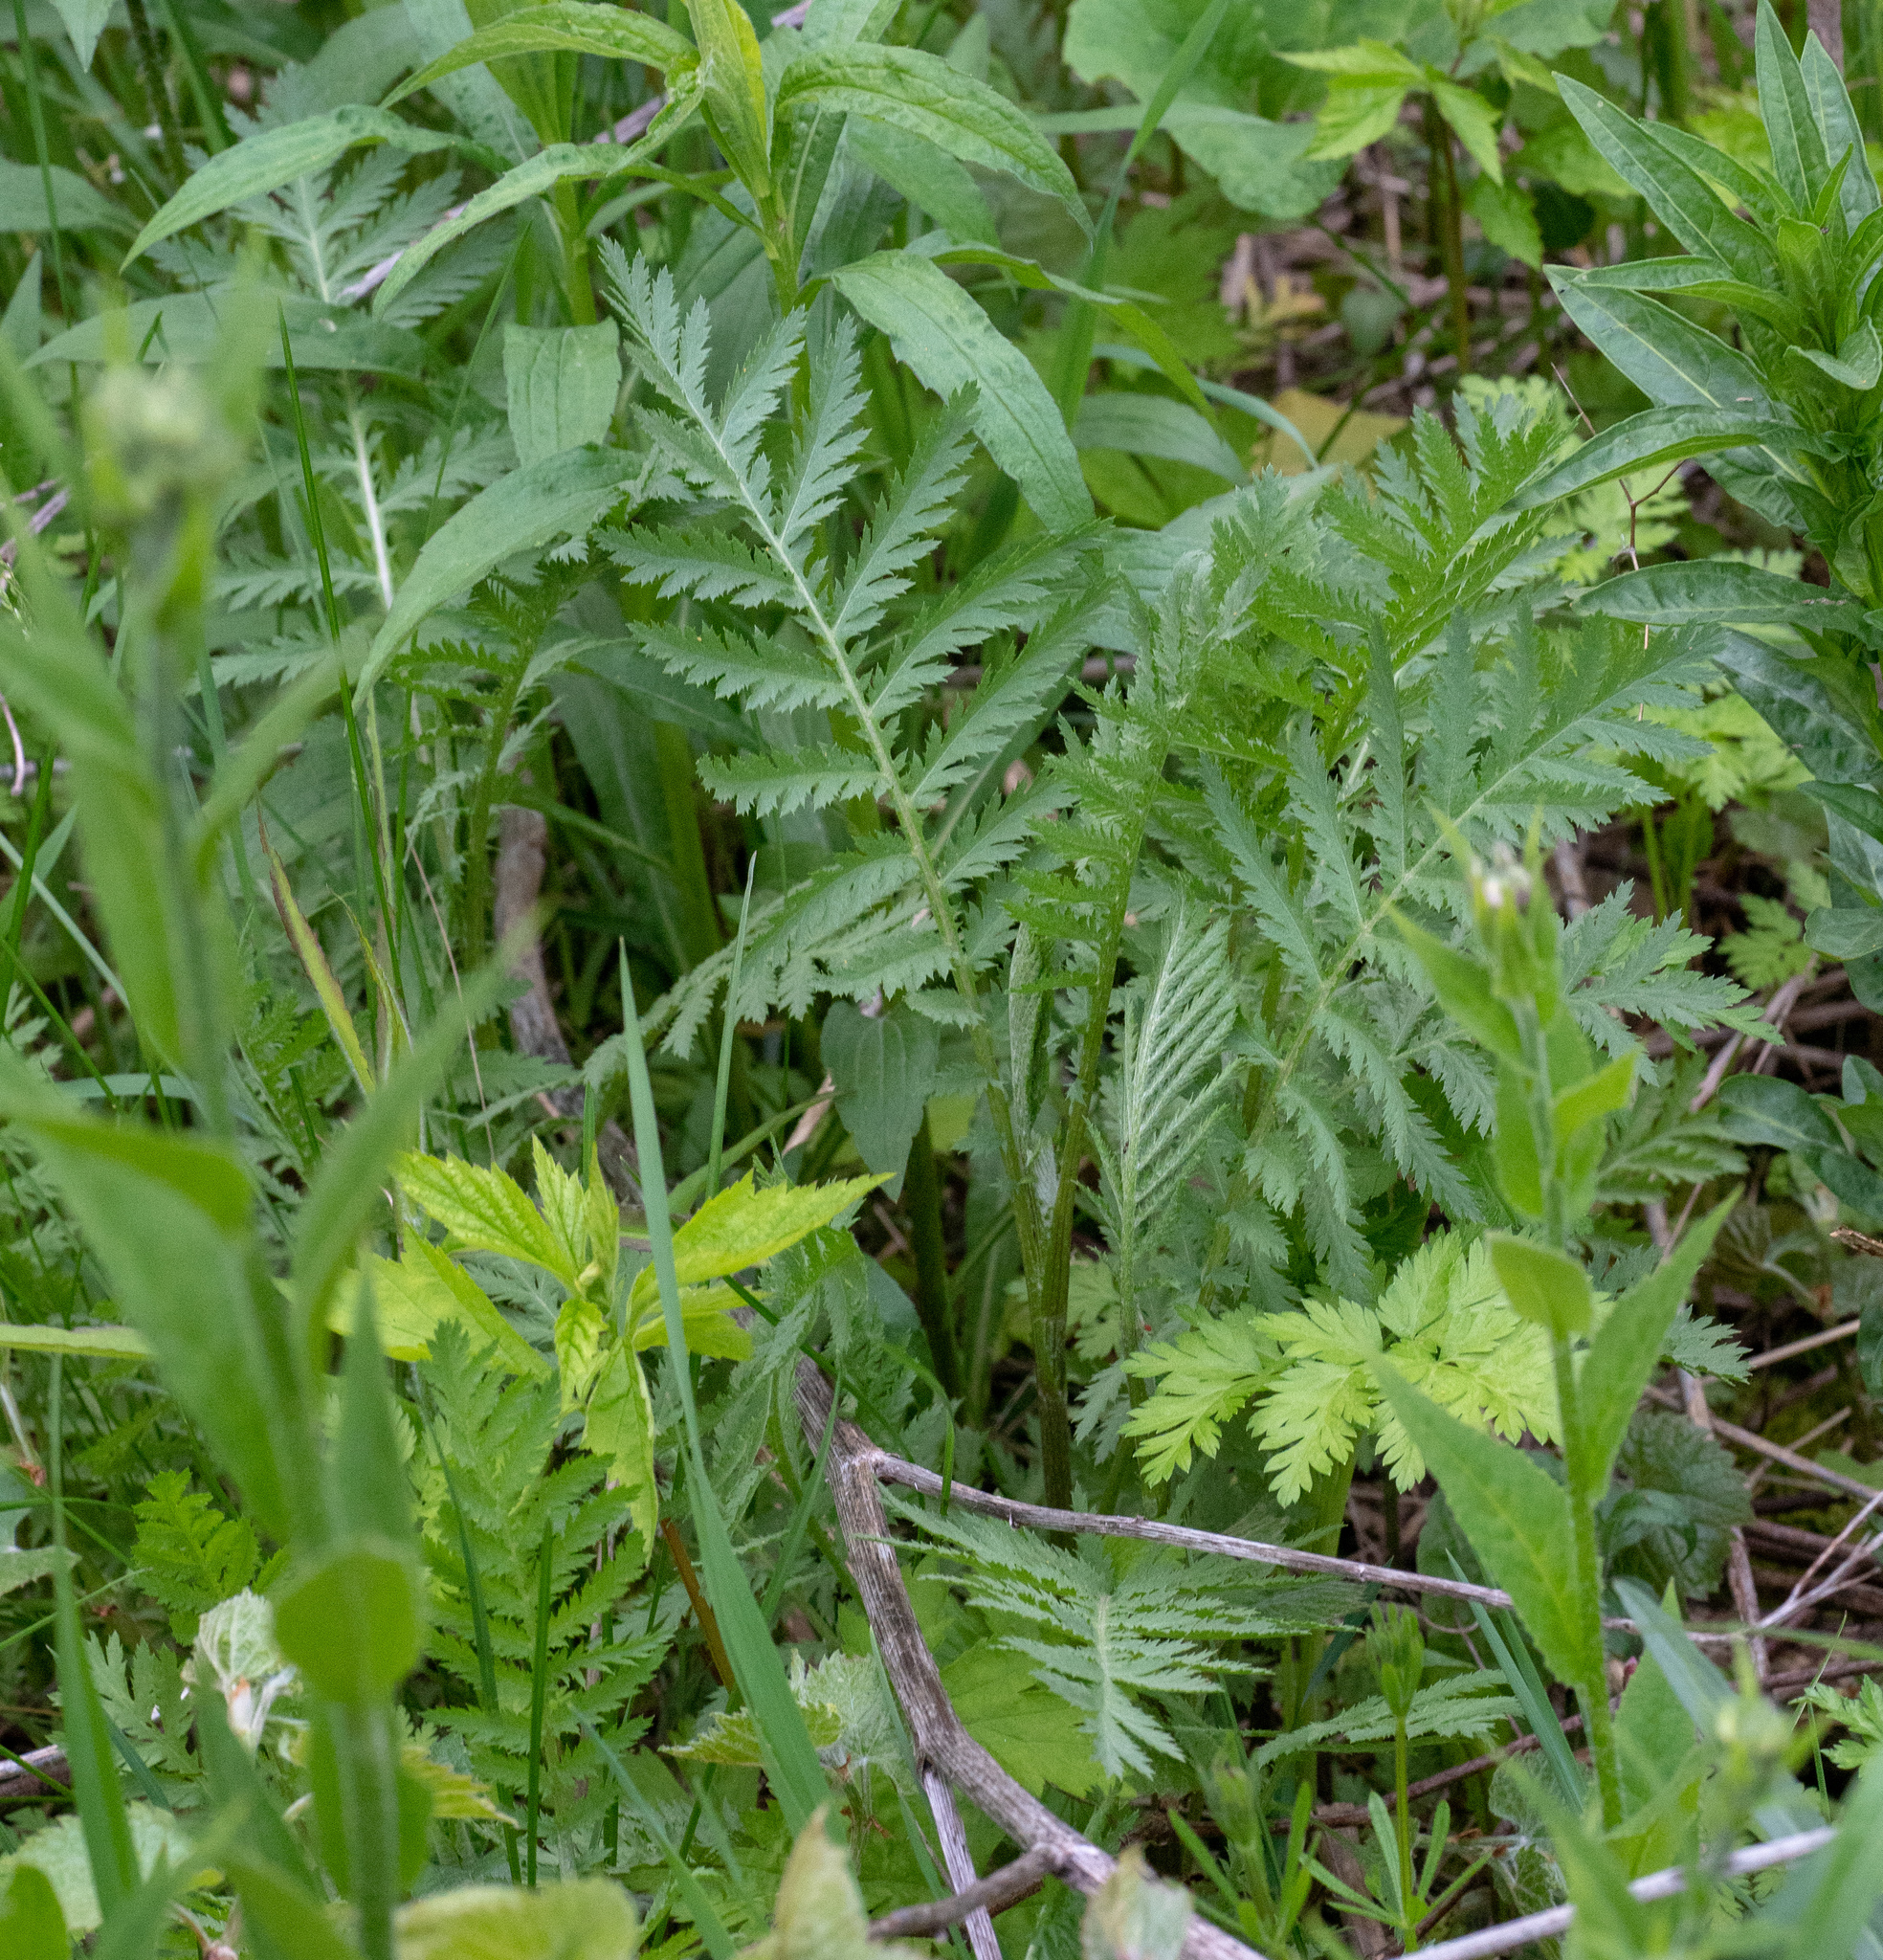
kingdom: Plantae
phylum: Tracheophyta
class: Magnoliopsida
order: Asterales
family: Asteraceae
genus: Tanacetum
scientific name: Tanacetum vulgare
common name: Common tansy
